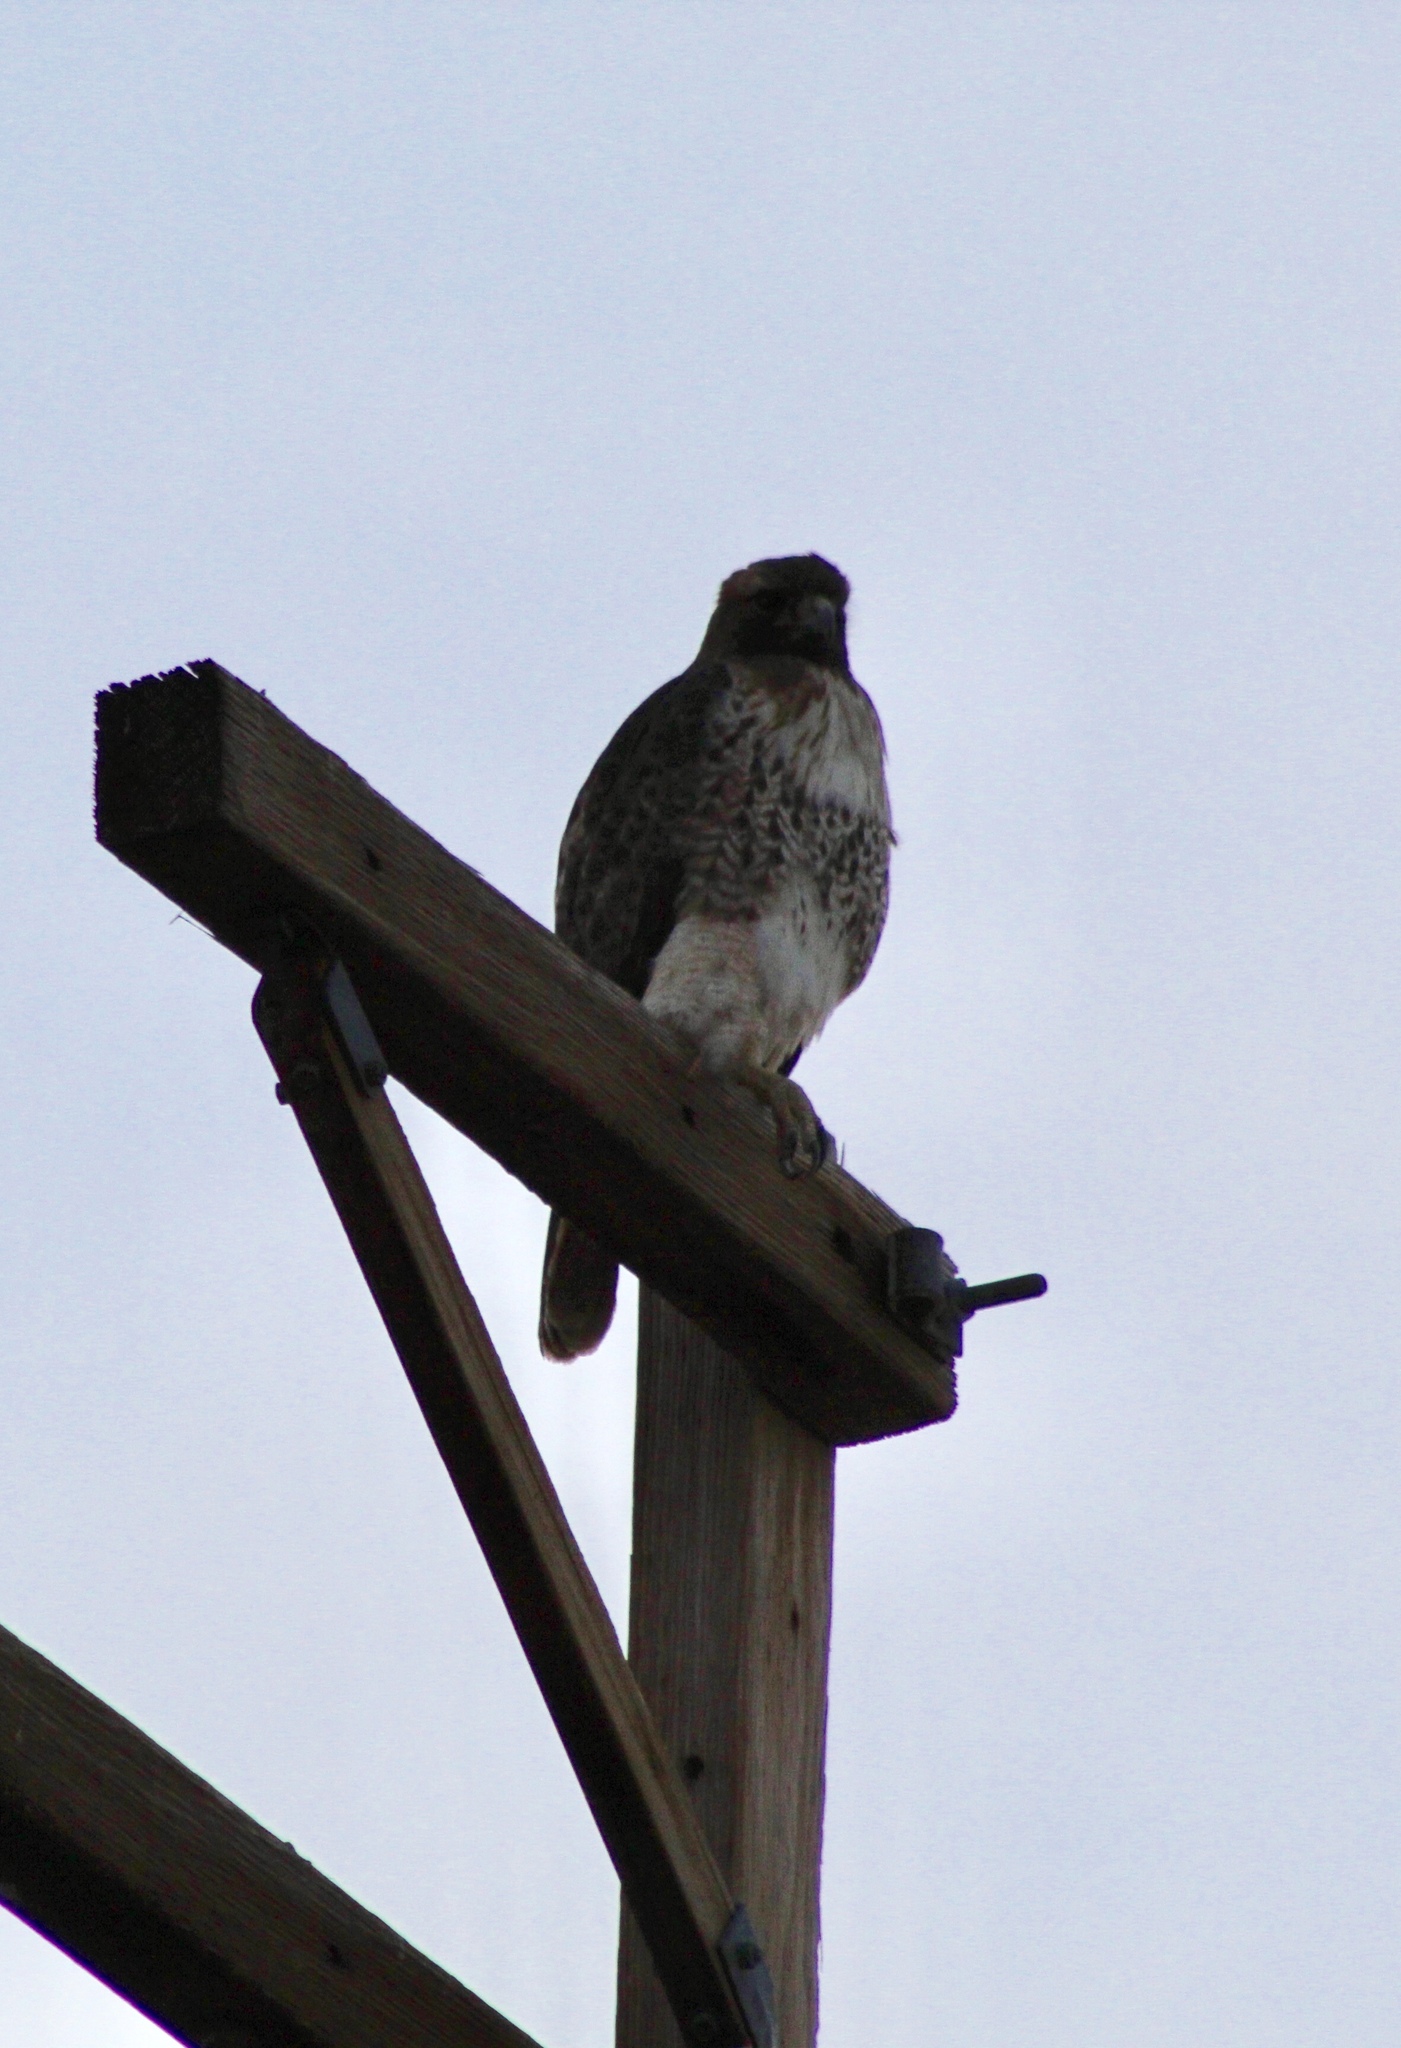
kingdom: Animalia
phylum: Chordata
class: Aves
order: Accipitriformes
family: Accipitridae
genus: Buteo
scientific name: Buteo jamaicensis
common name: Red-tailed hawk
